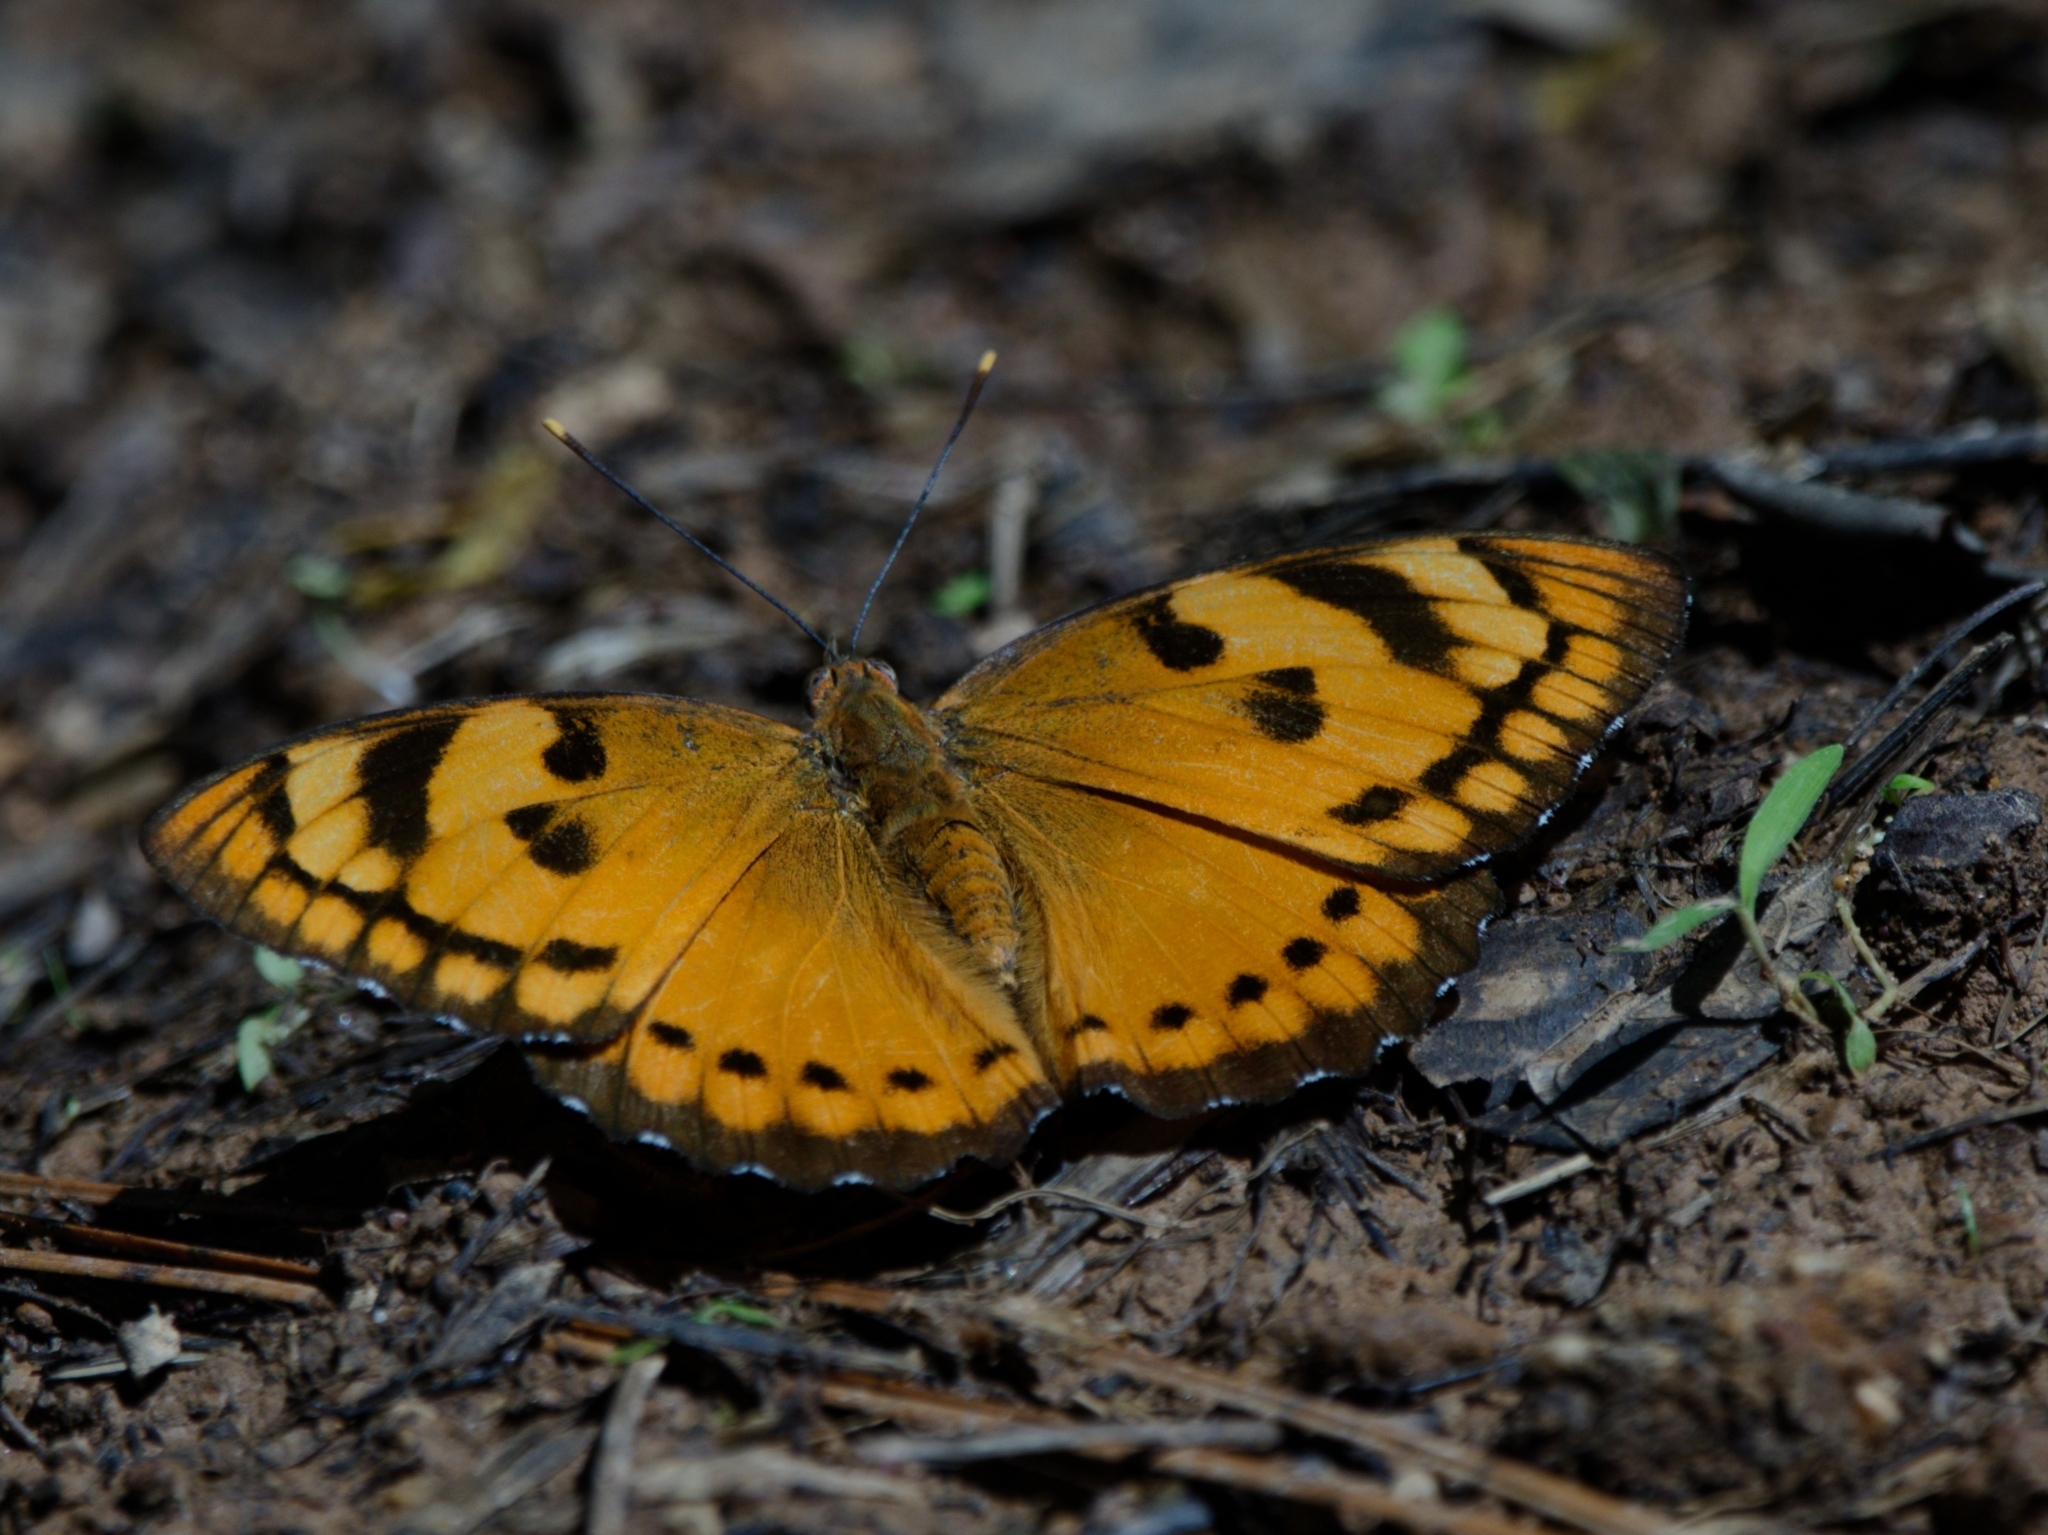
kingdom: Animalia
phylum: Arthropoda
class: Insecta
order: Lepidoptera
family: Nymphalidae
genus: Euthalia
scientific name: Euthalia nais
